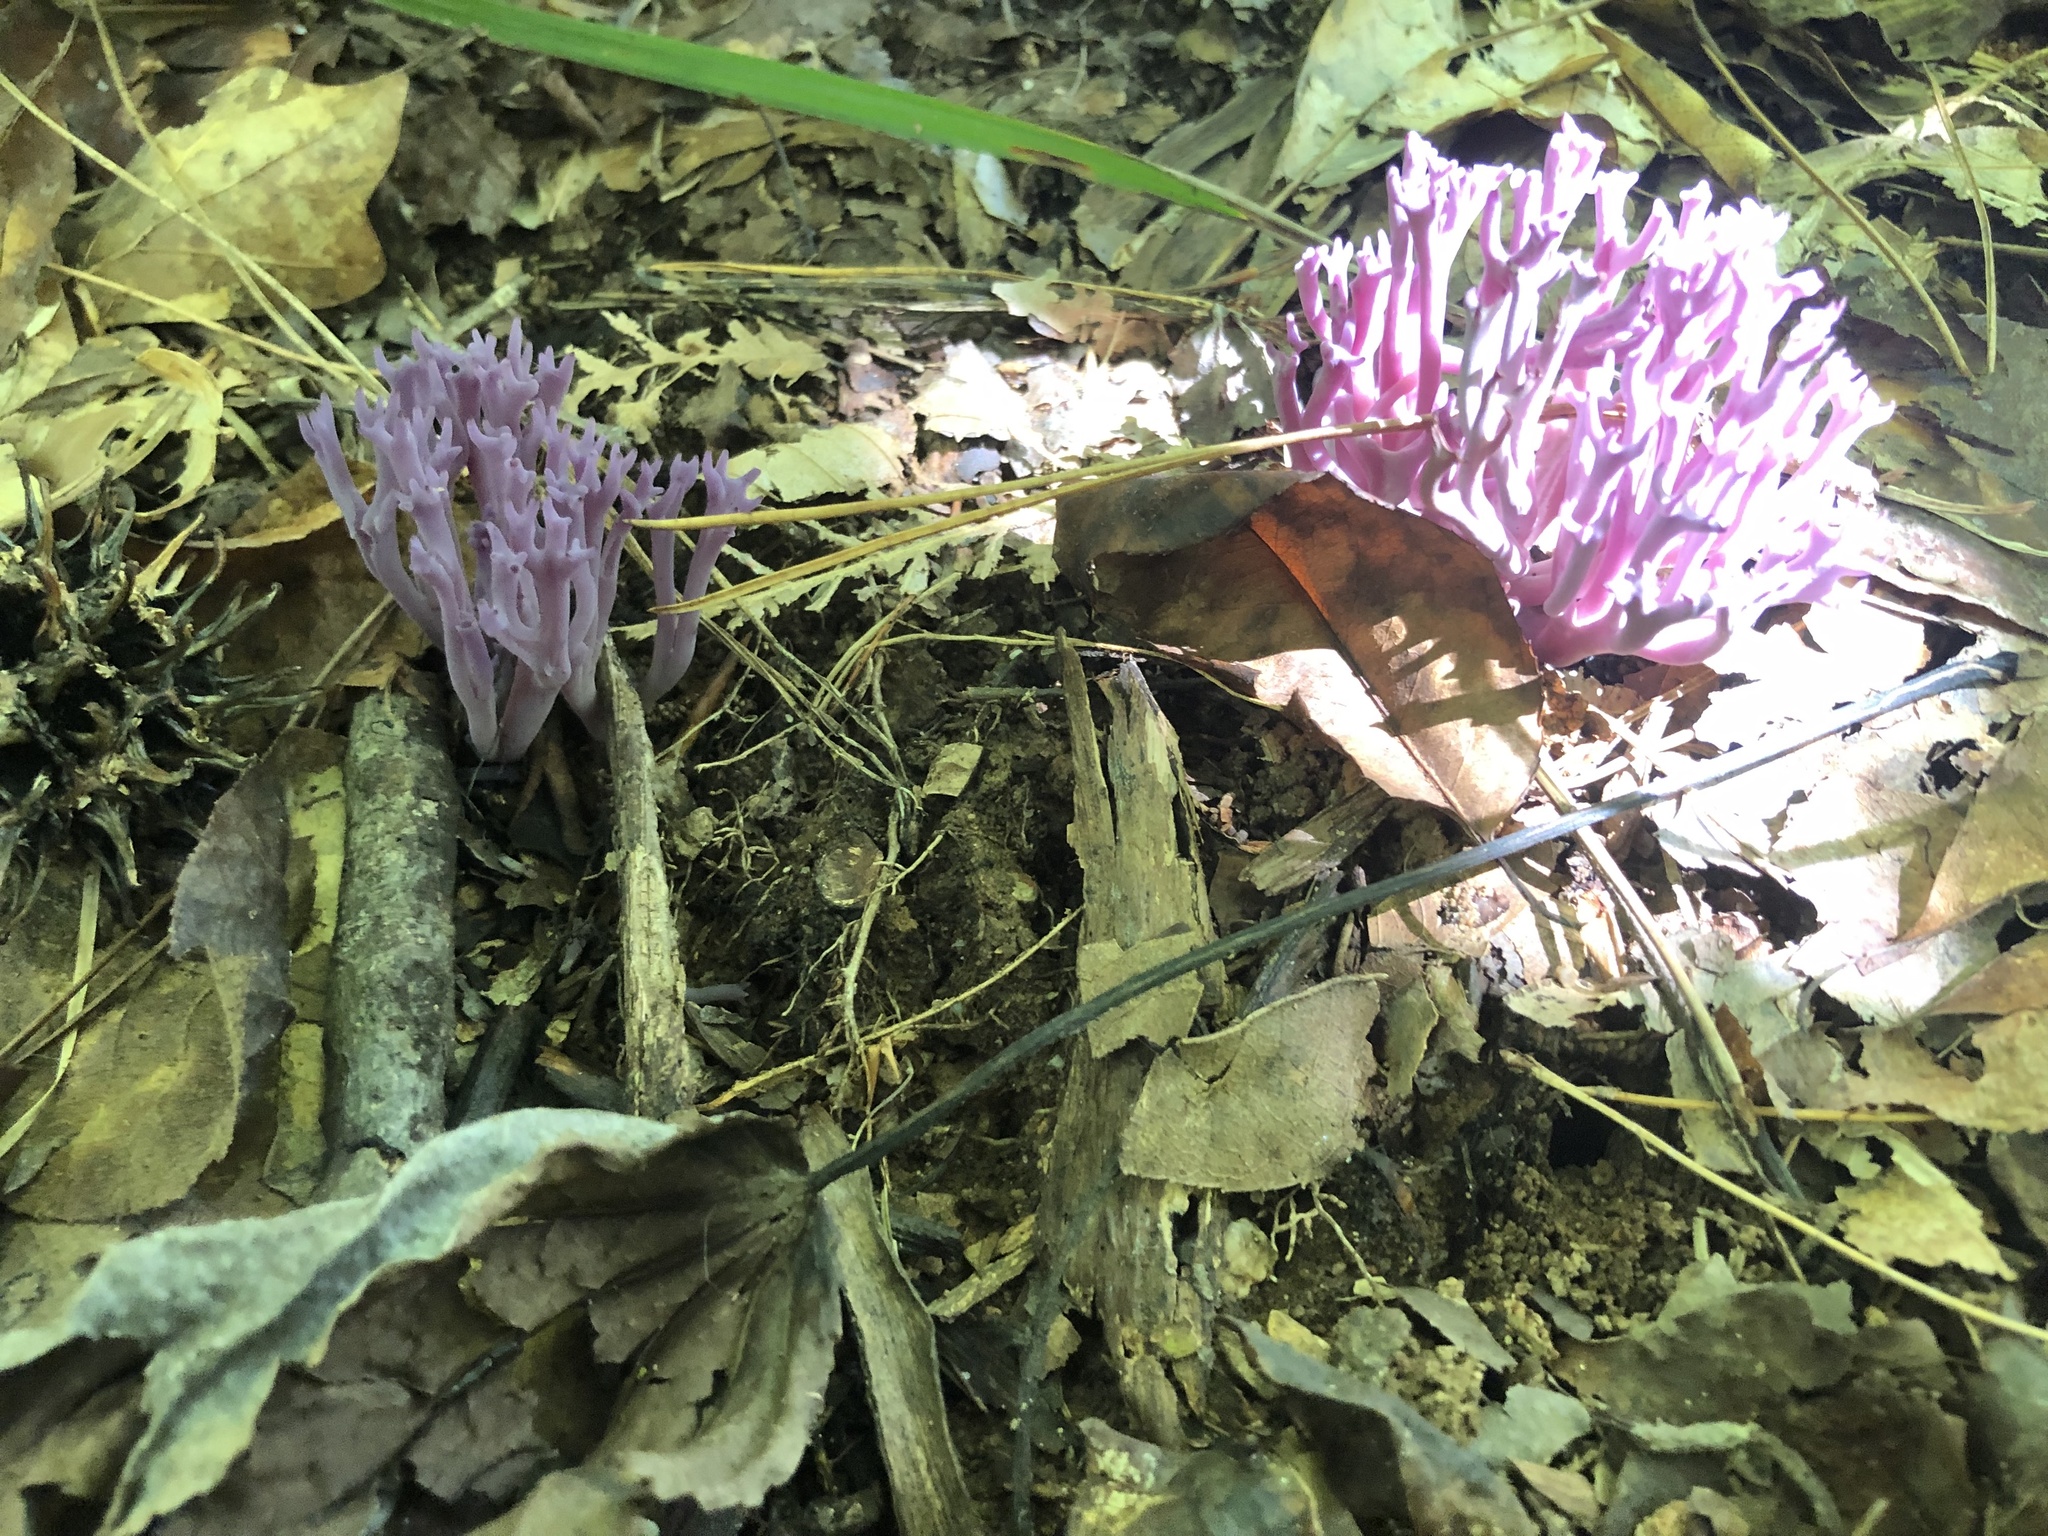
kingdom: Fungi
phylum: Basidiomycota
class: Agaricomycetes
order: Agaricales
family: Clavariaceae
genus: Clavaria
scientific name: Clavaria zollingeri
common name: Violet coral
